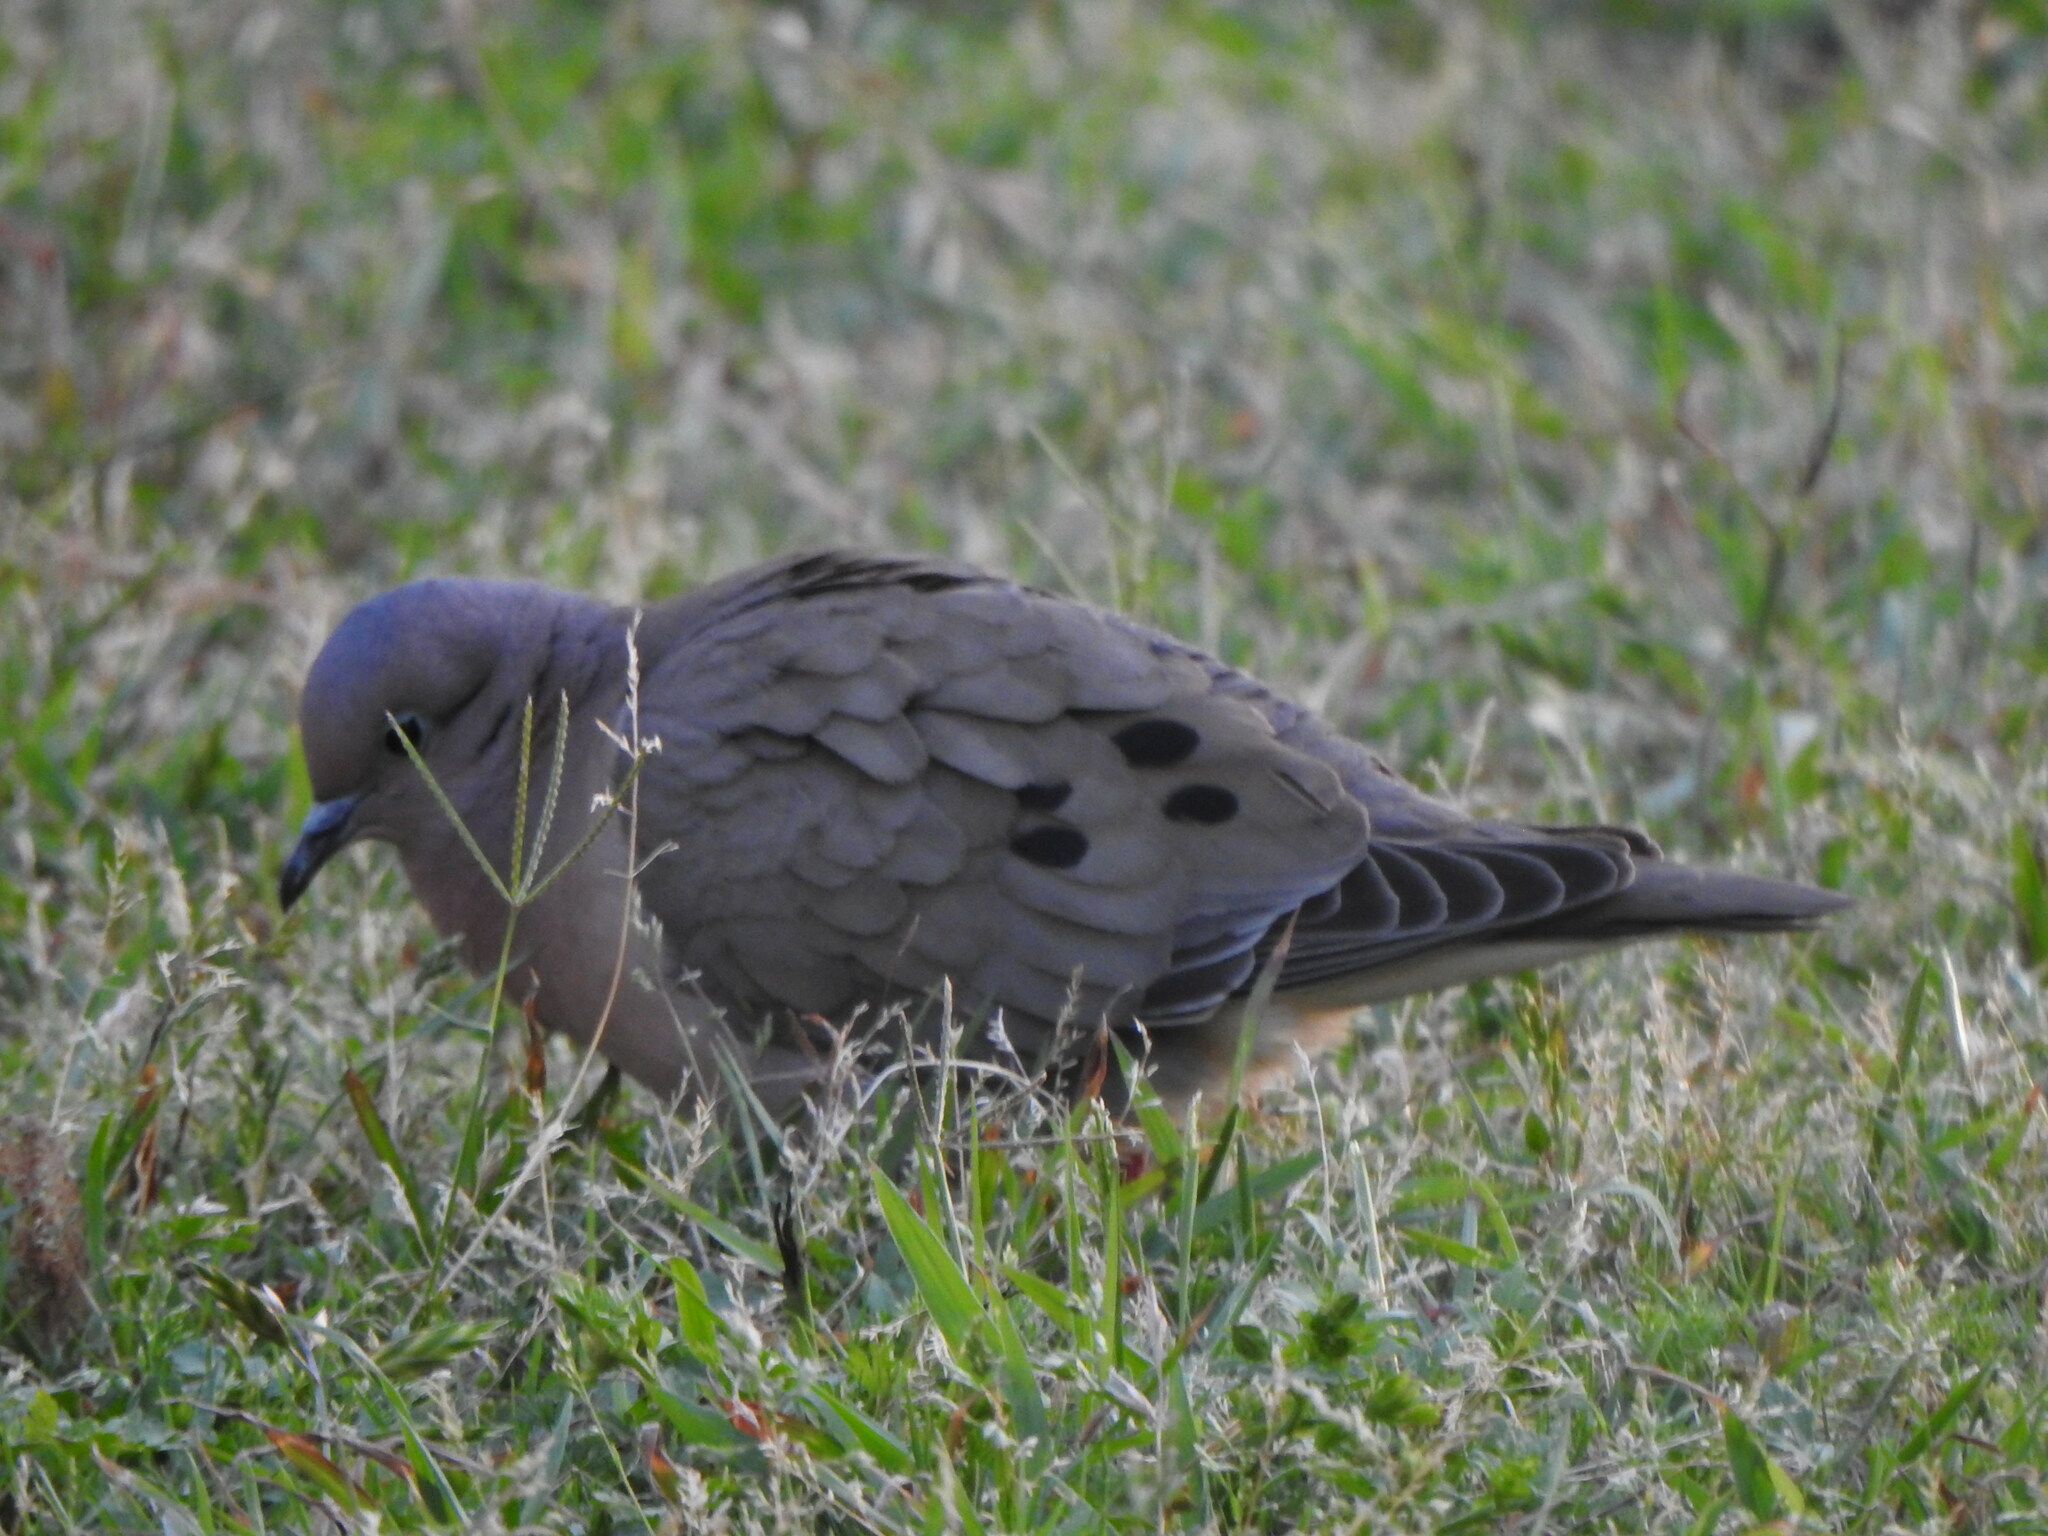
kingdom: Animalia
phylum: Chordata
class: Aves
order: Columbiformes
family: Columbidae
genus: Zenaida
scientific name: Zenaida auriculata
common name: Eared dove
